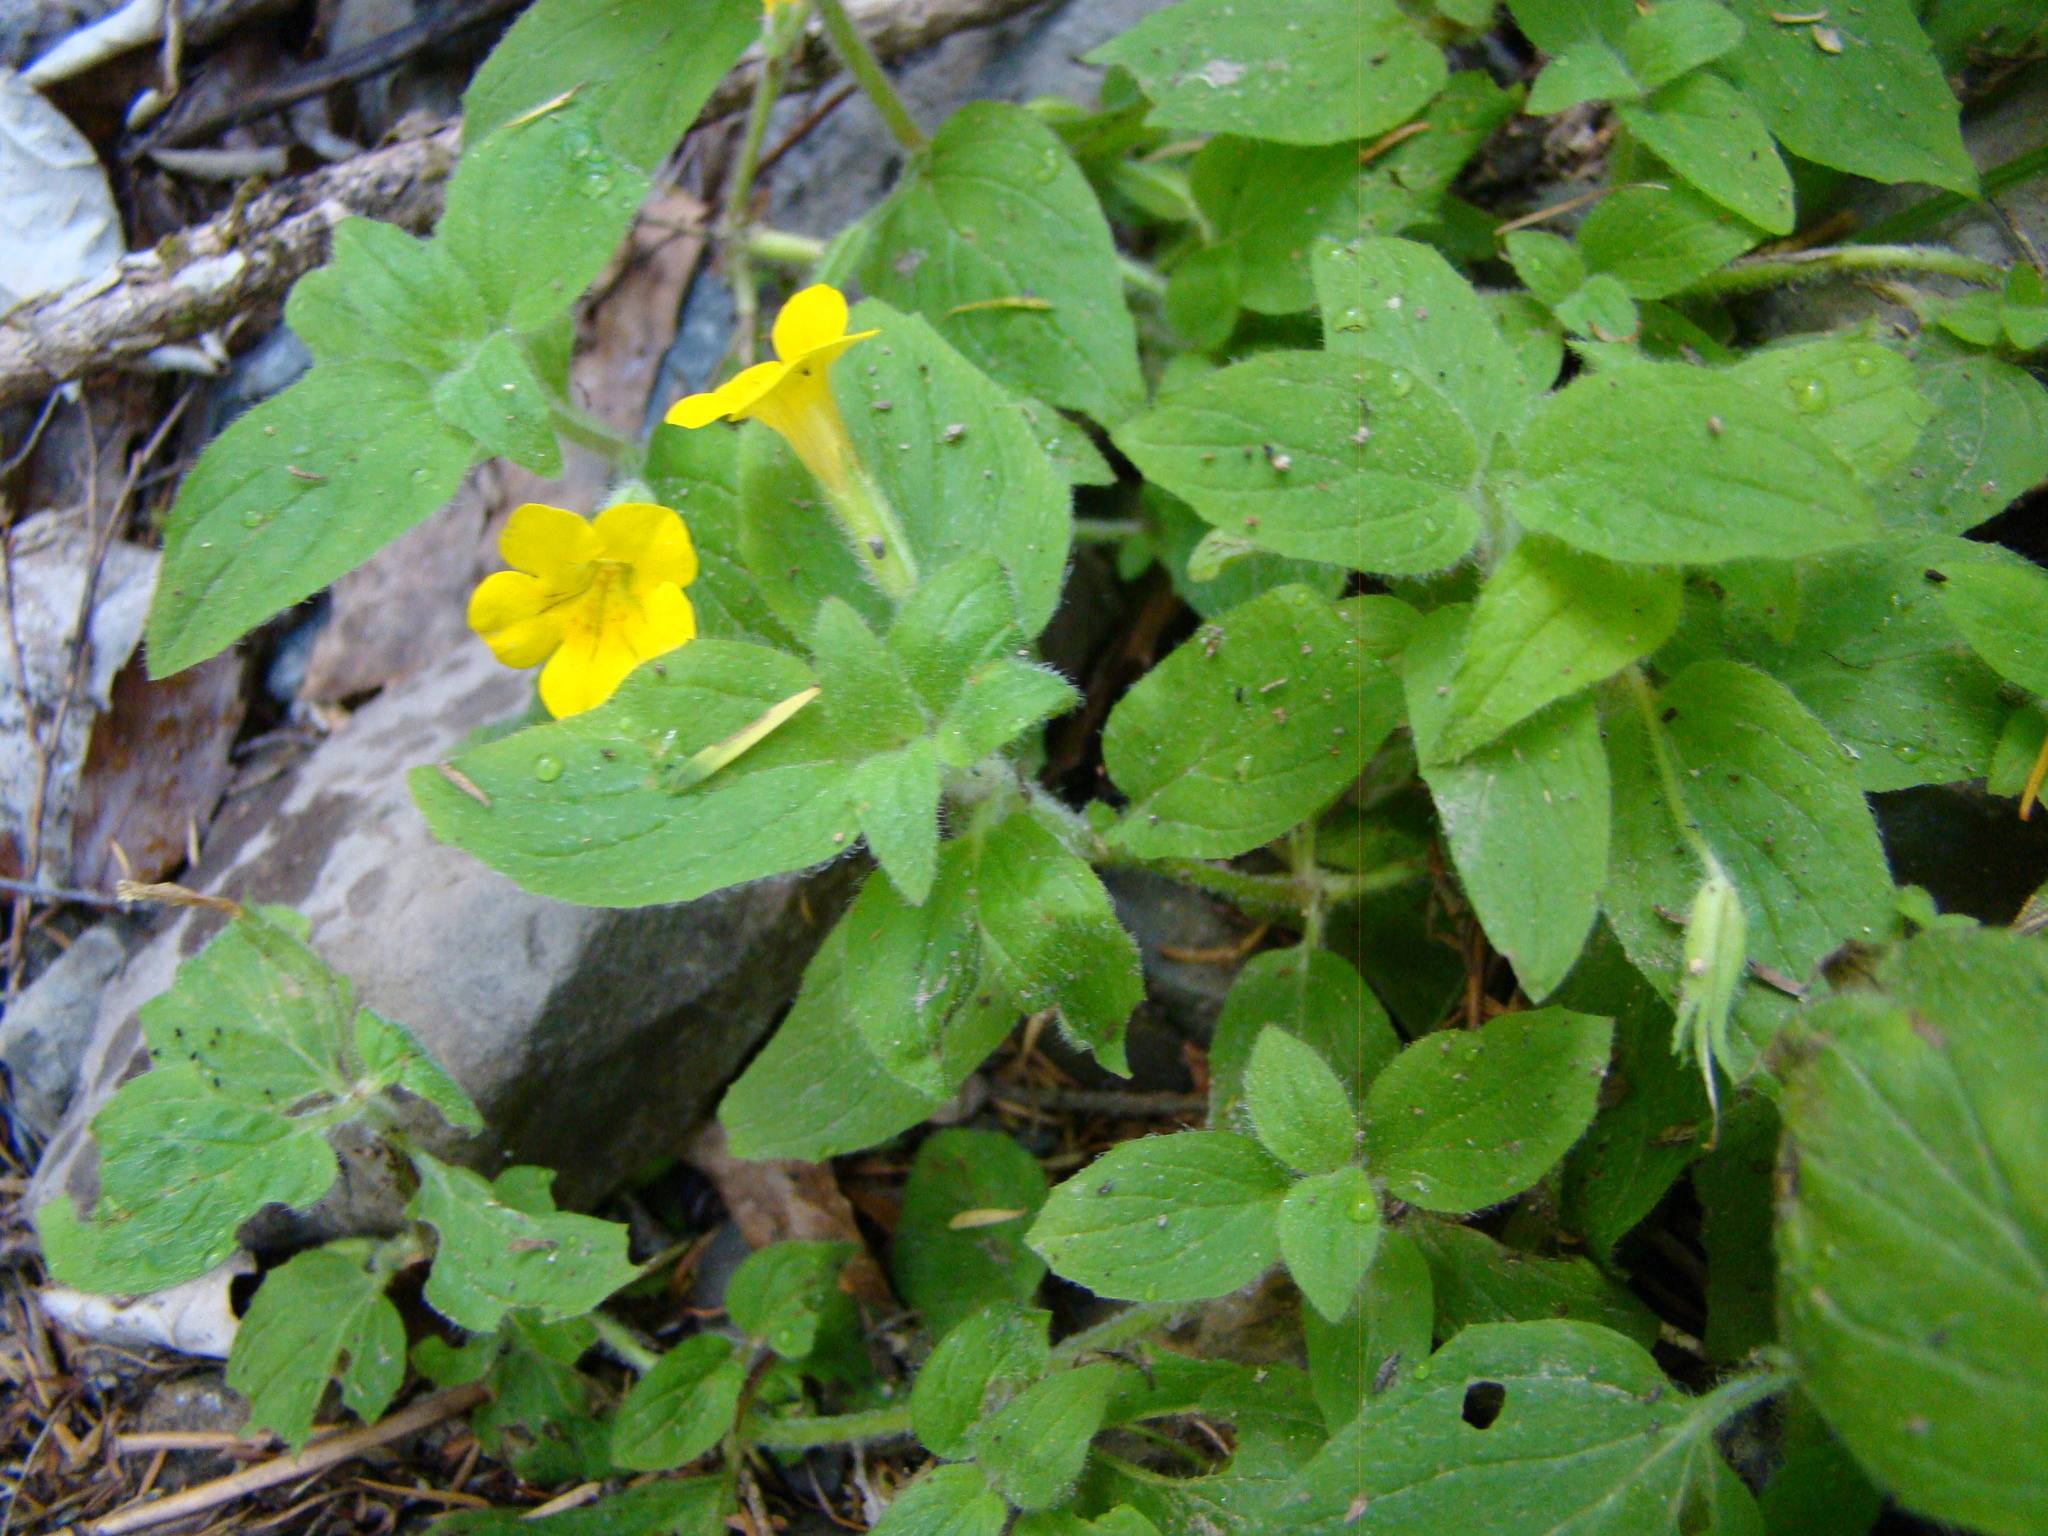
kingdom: Plantae
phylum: Tracheophyta
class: Magnoliopsida
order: Lamiales
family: Phrymaceae
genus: Erythranthe
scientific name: Erythranthe moschata
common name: Muskflower
